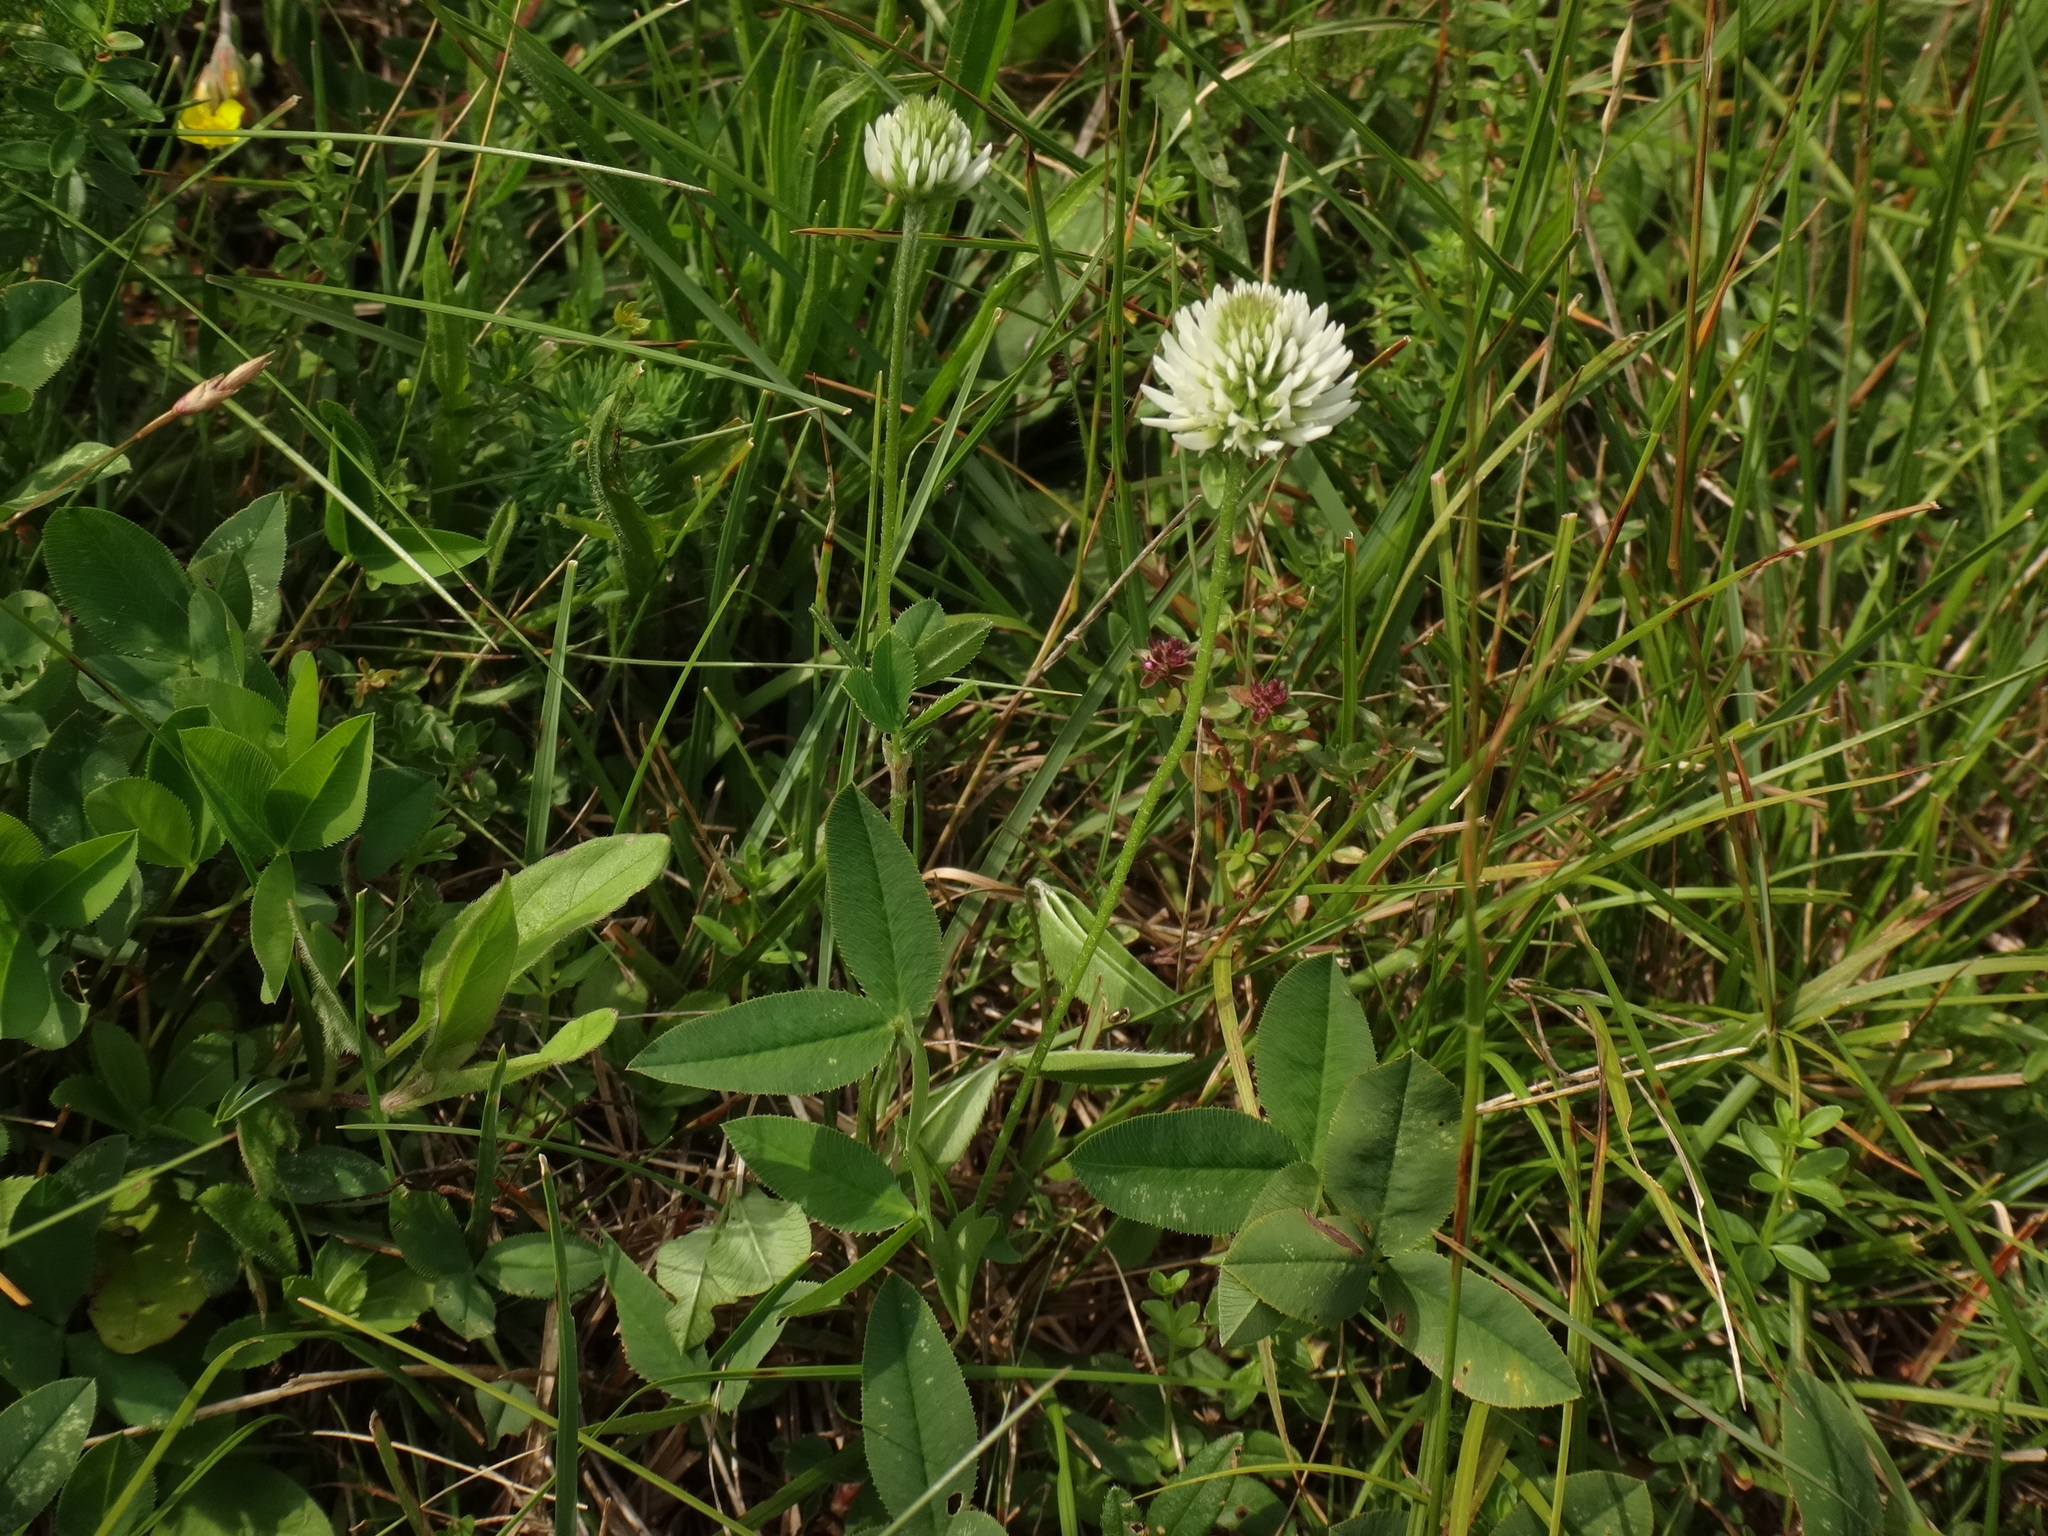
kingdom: Plantae
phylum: Tracheophyta
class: Magnoliopsida
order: Fabales
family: Fabaceae
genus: Trifolium
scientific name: Trifolium montanum
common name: Mountain clover
